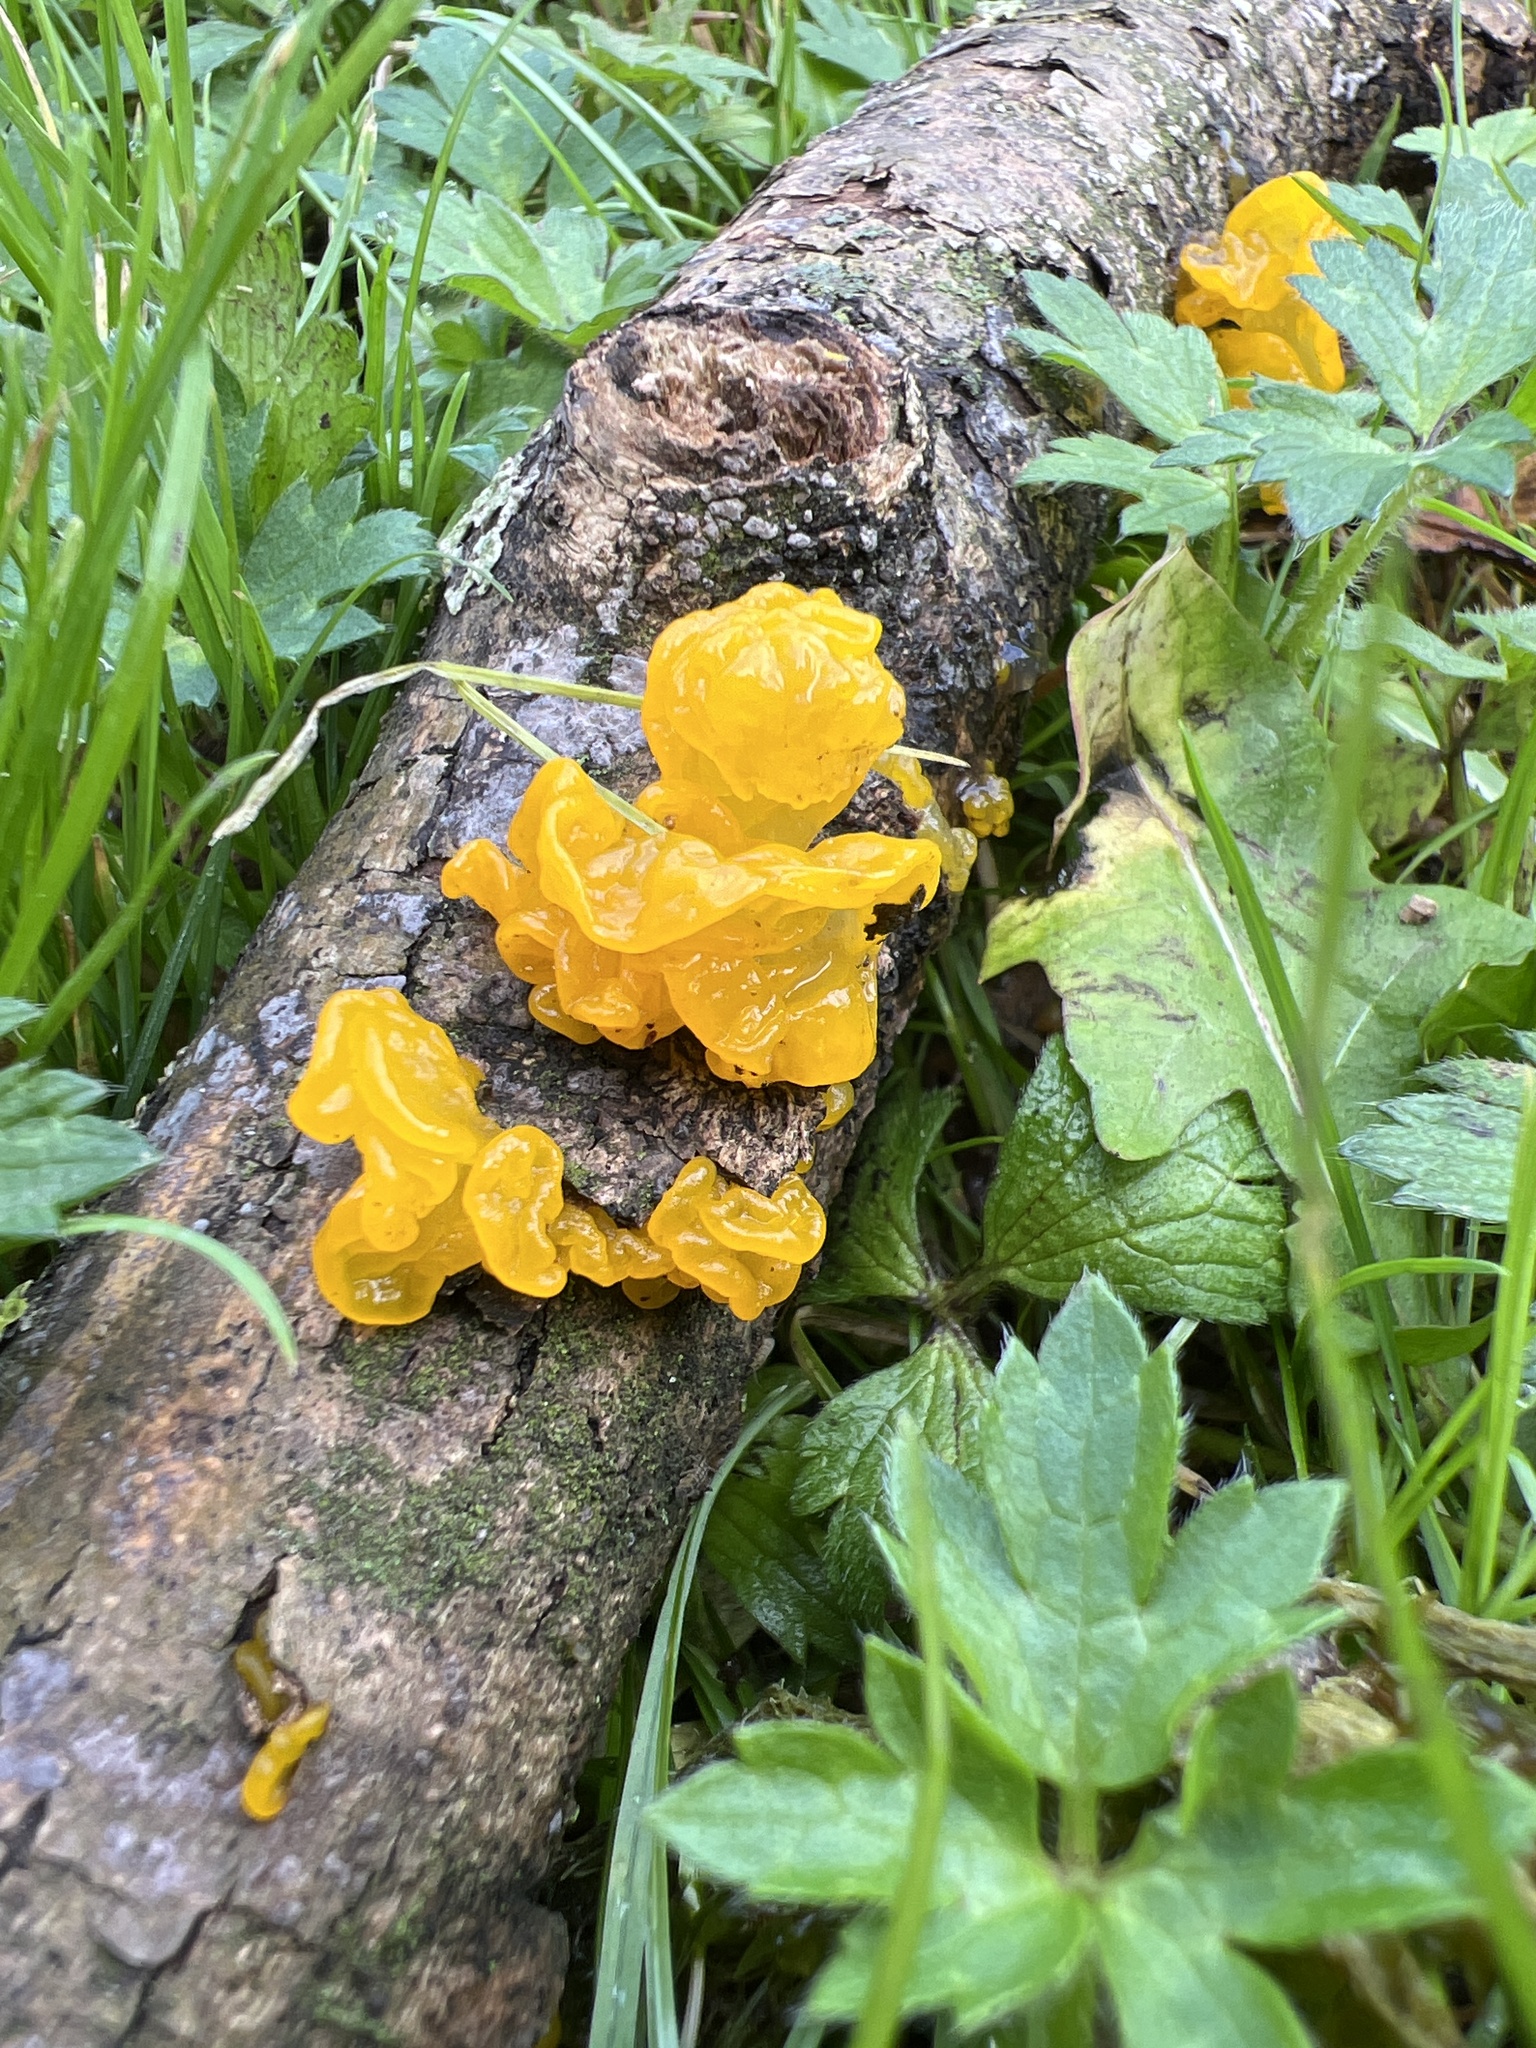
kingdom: Fungi
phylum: Basidiomycota
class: Tremellomycetes
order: Tremellales
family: Tremellaceae
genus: Tremella
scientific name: Tremella mesenterica
